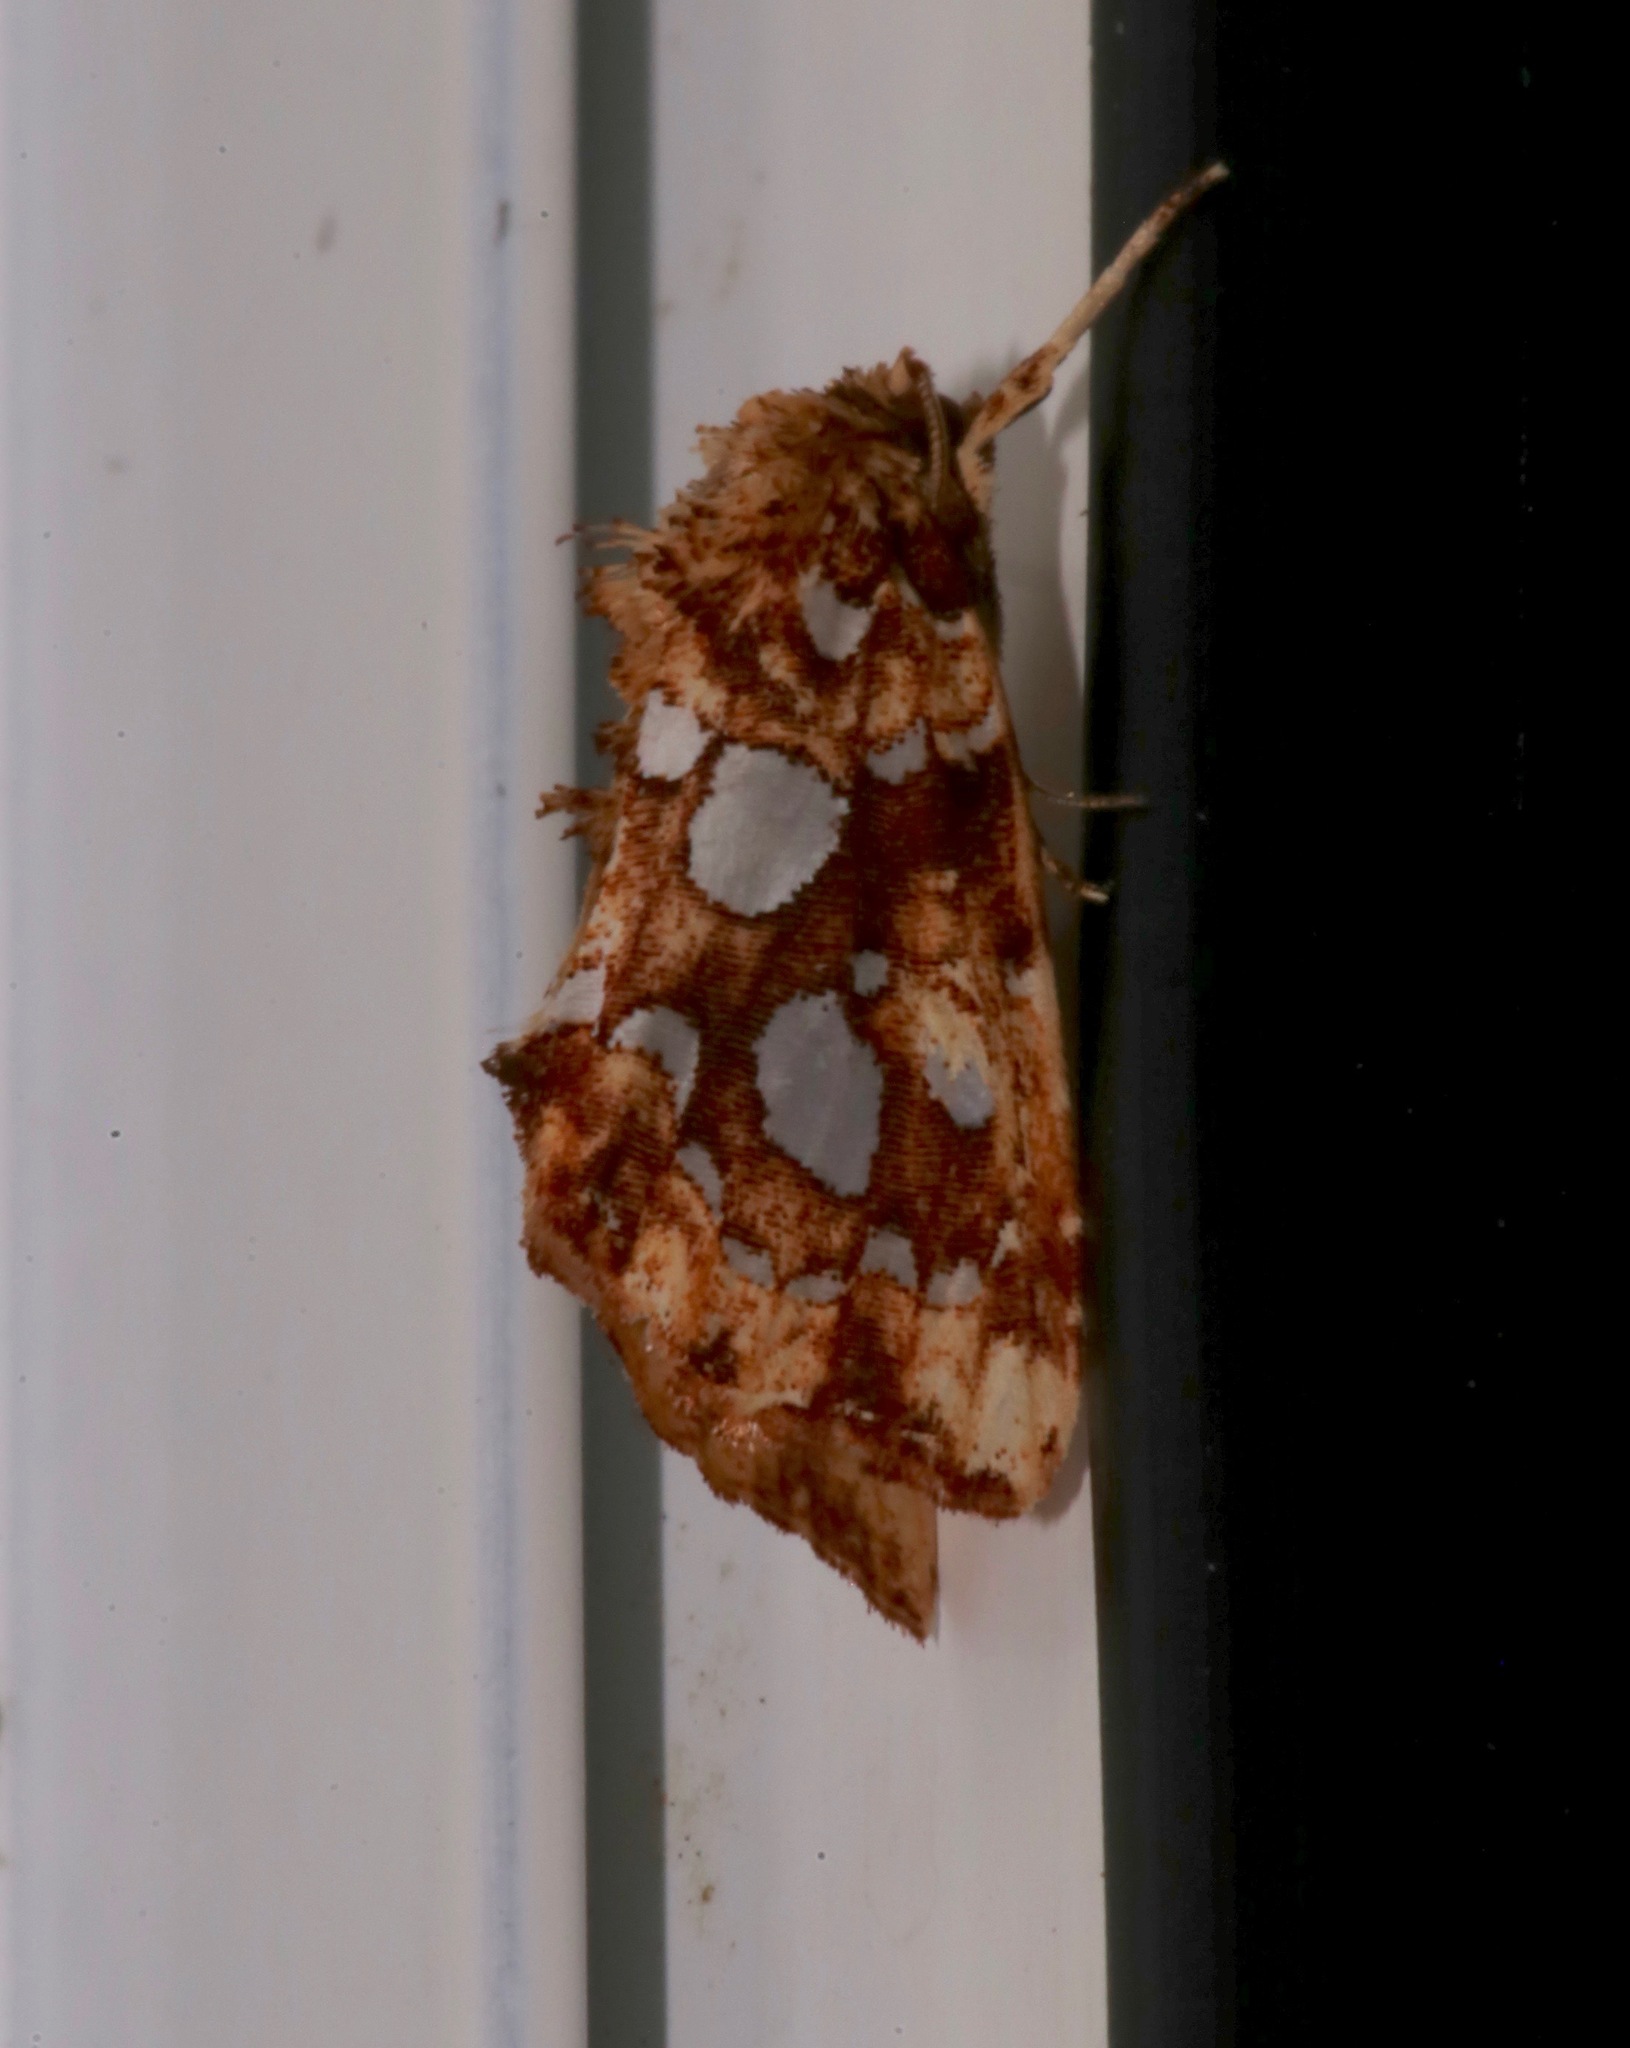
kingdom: Animalia
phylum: Arthropoda
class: Insecta
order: Lepidoptera
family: Noctuidae
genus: Callopistria
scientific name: Callopistria cordata
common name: Silver-spotted fern moth
